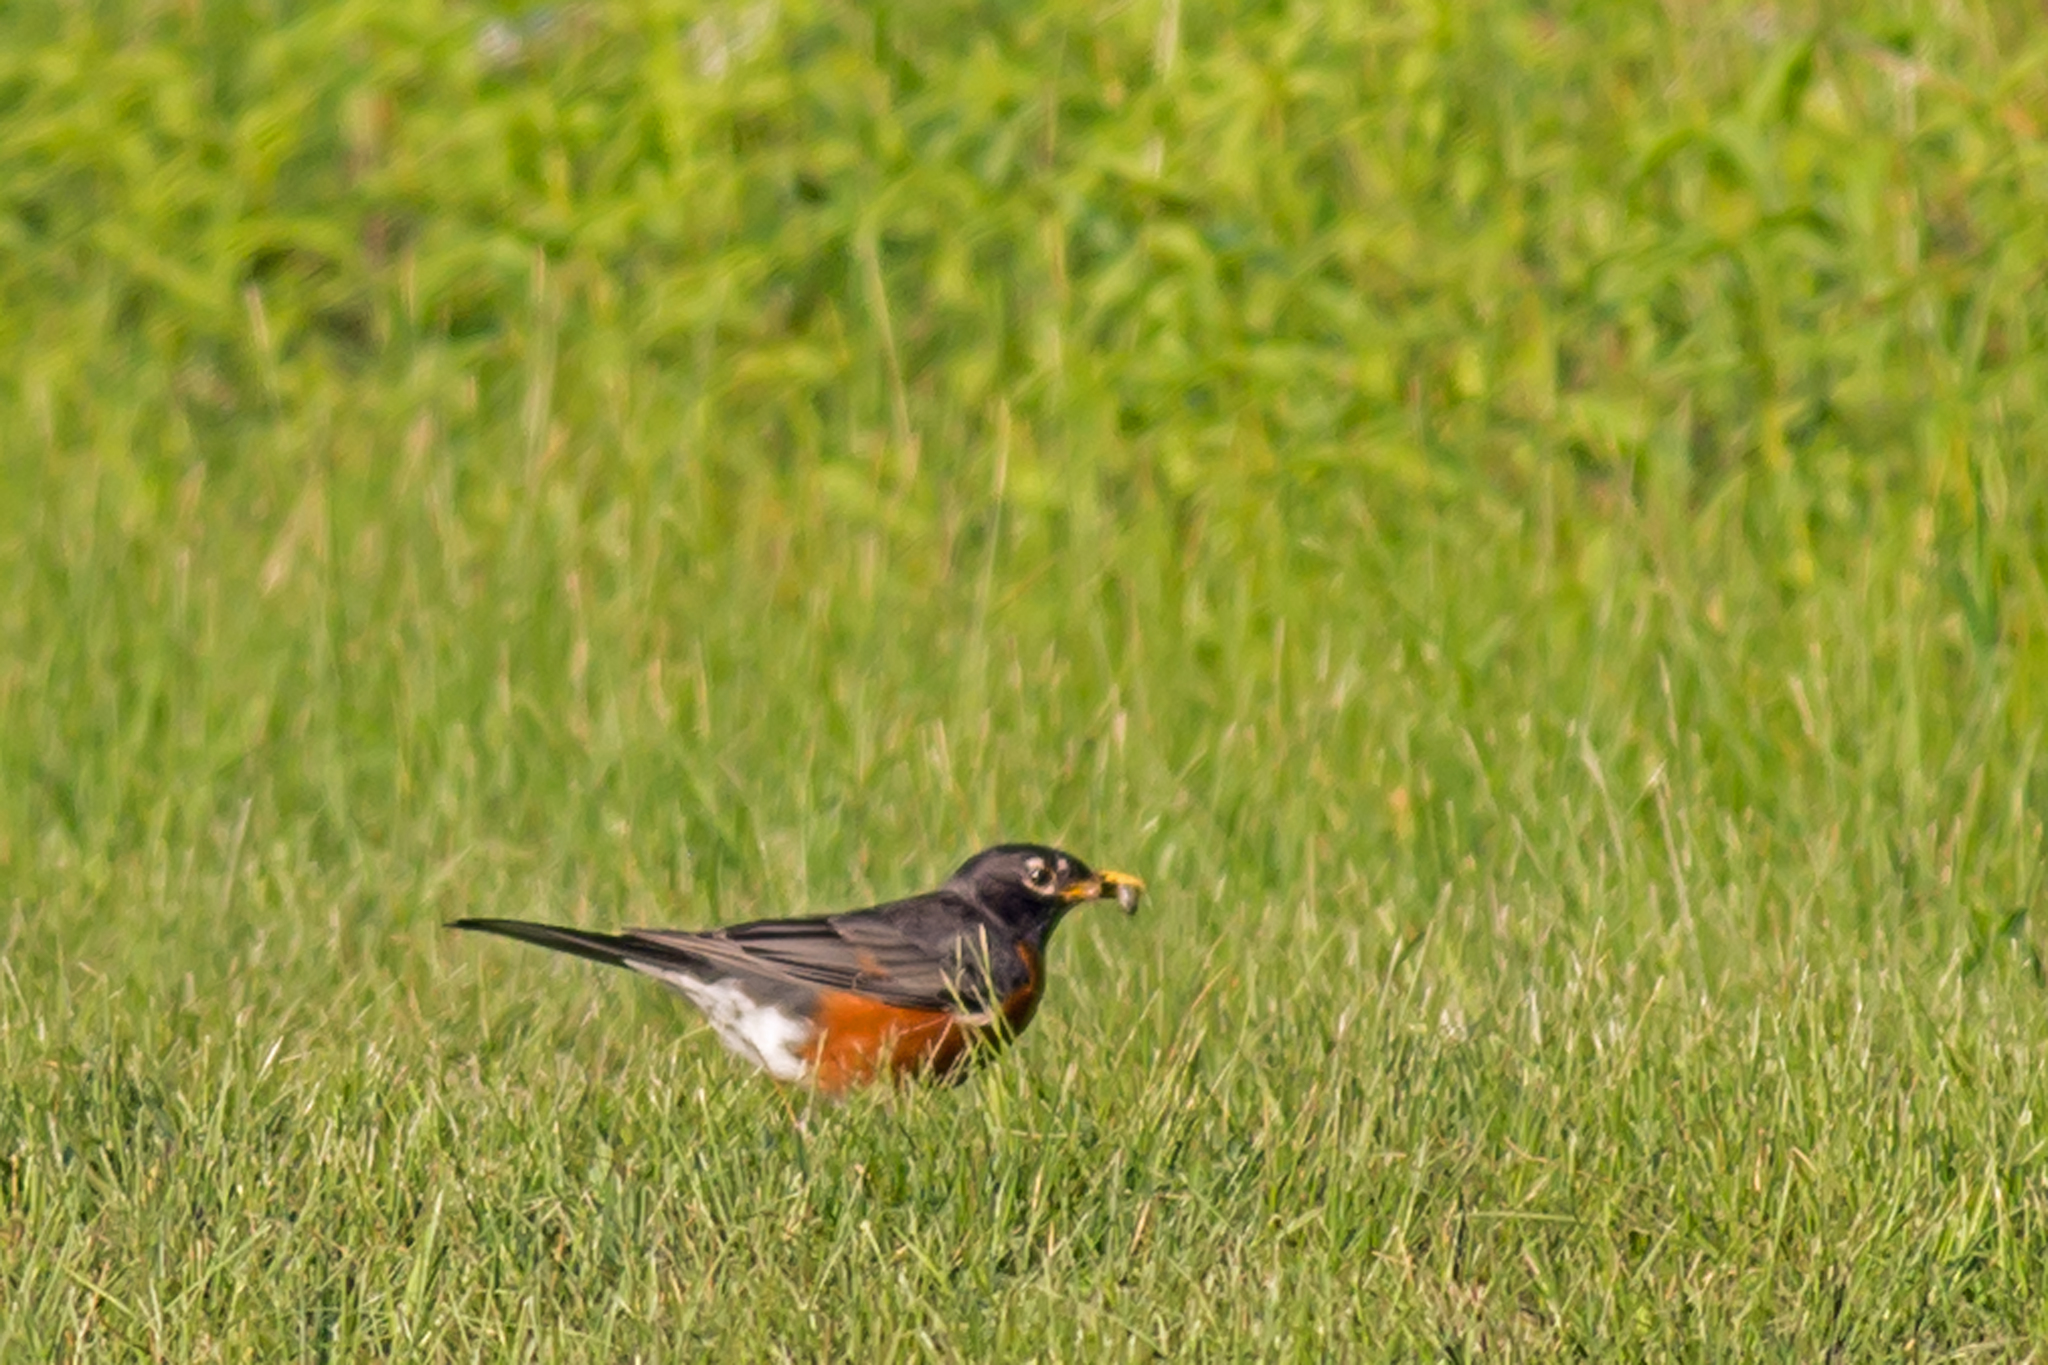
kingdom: Animalia
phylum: Chordata
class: Aves
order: Passeriformes
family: Turdidae
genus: Turdus
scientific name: Turdus migratorius
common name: American robin
